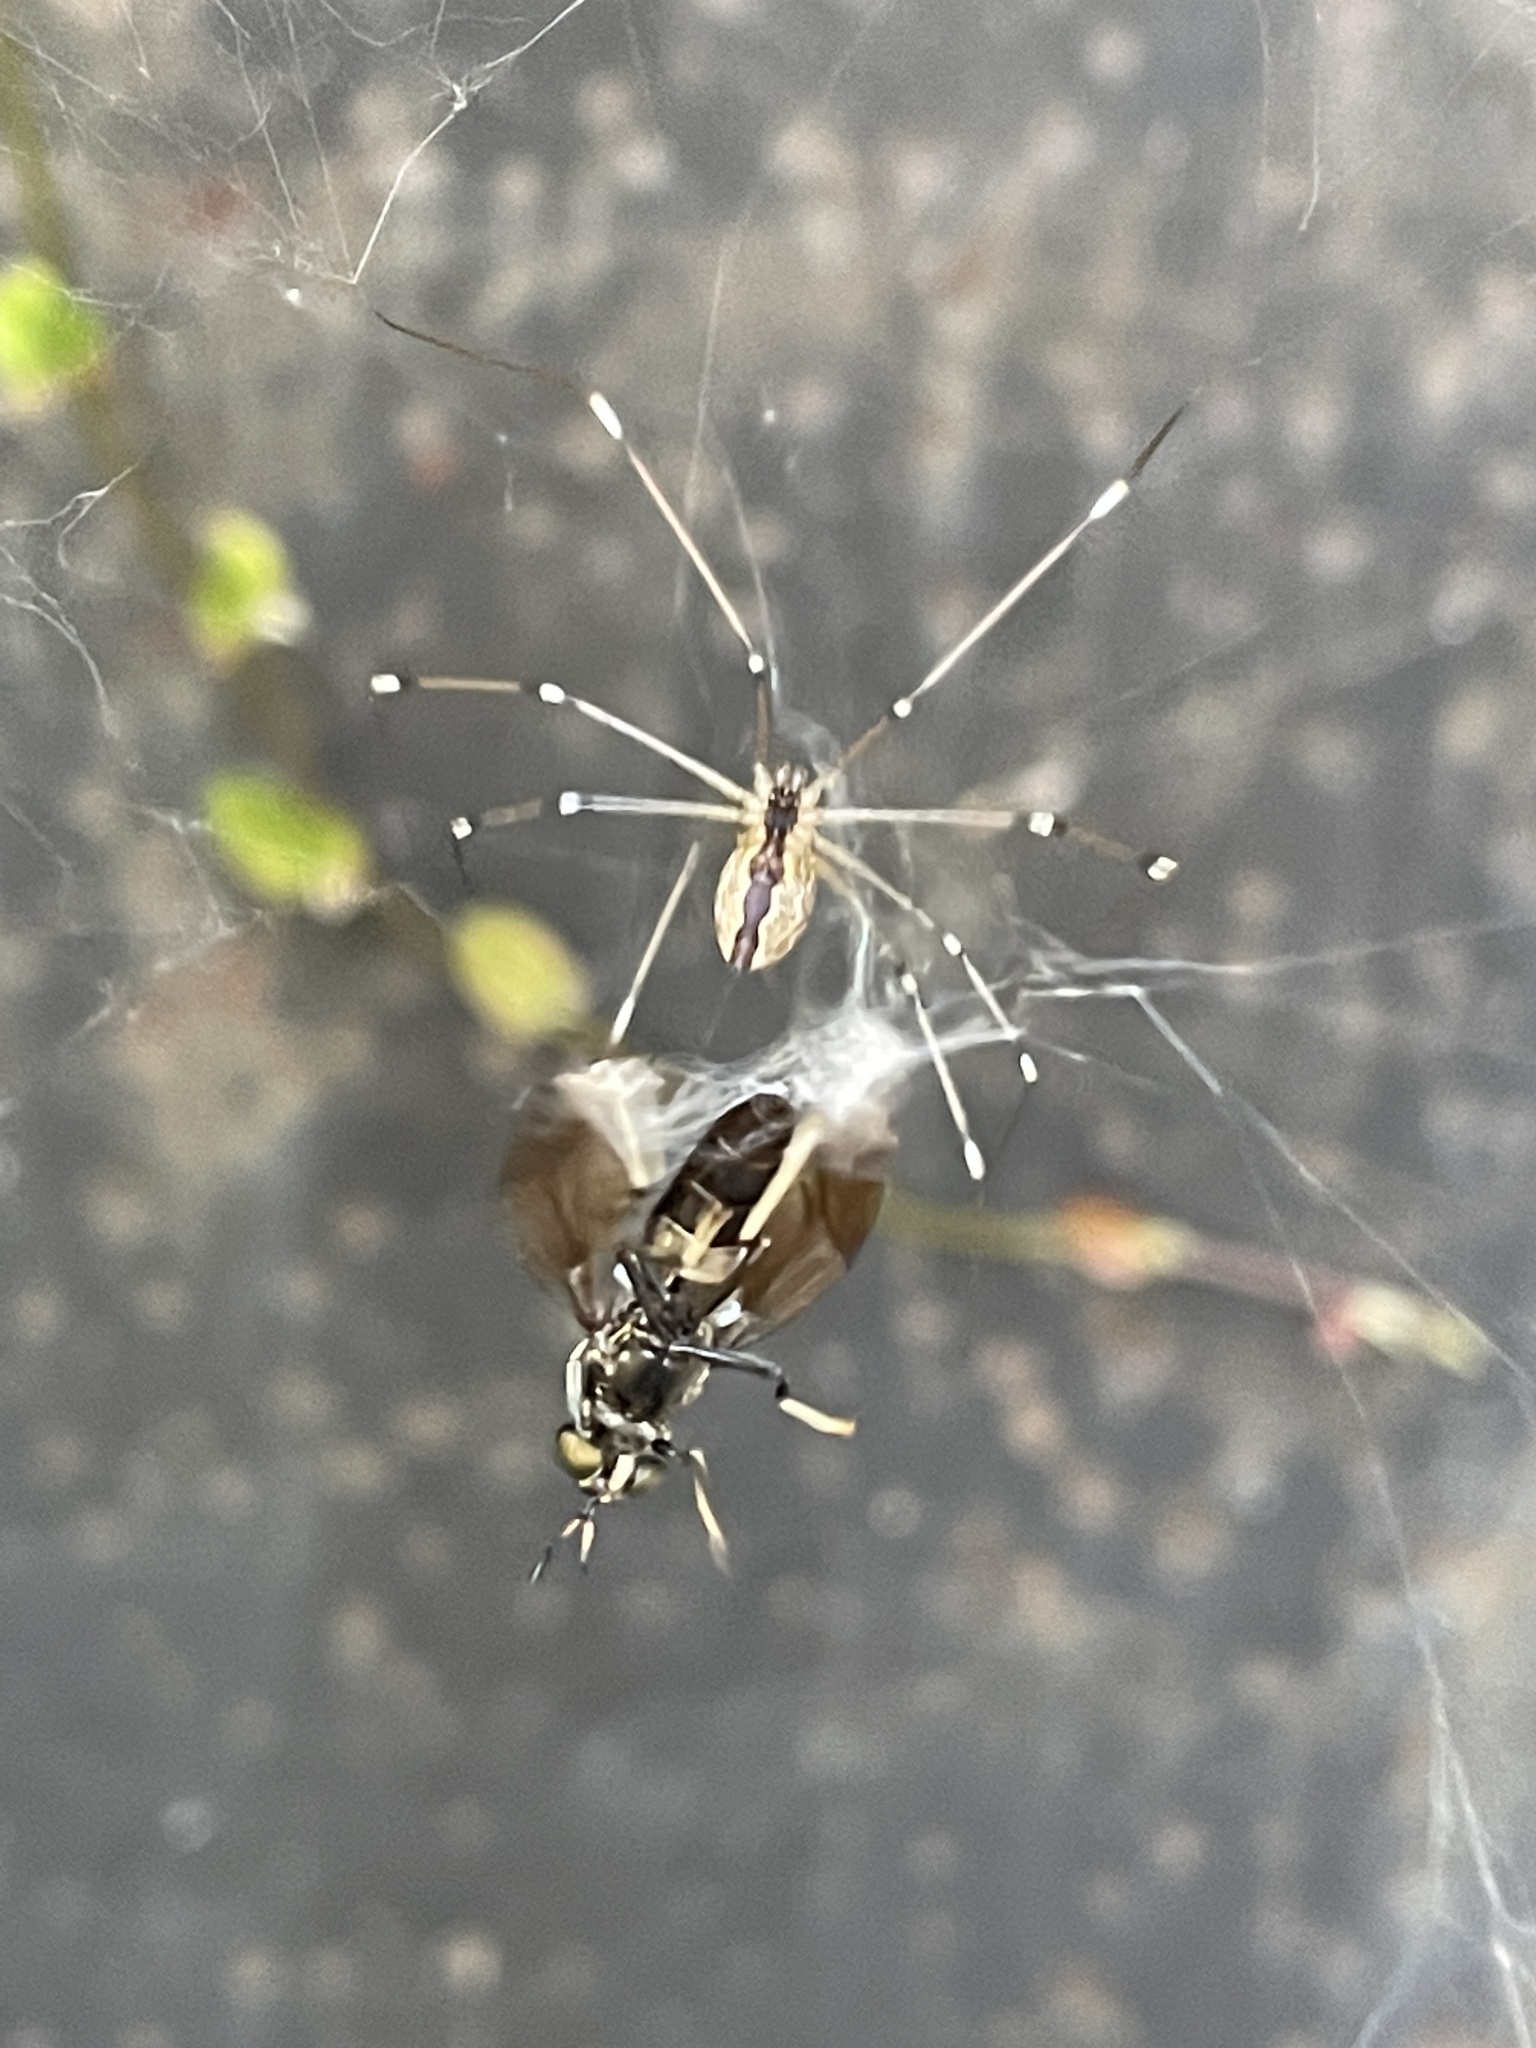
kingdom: Animalia
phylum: Arthropoda
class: Arachnida
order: Araneae
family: Pholcidae
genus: Holocnemus
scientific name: Holocnemus pluchei
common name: Marbled cellar spider
